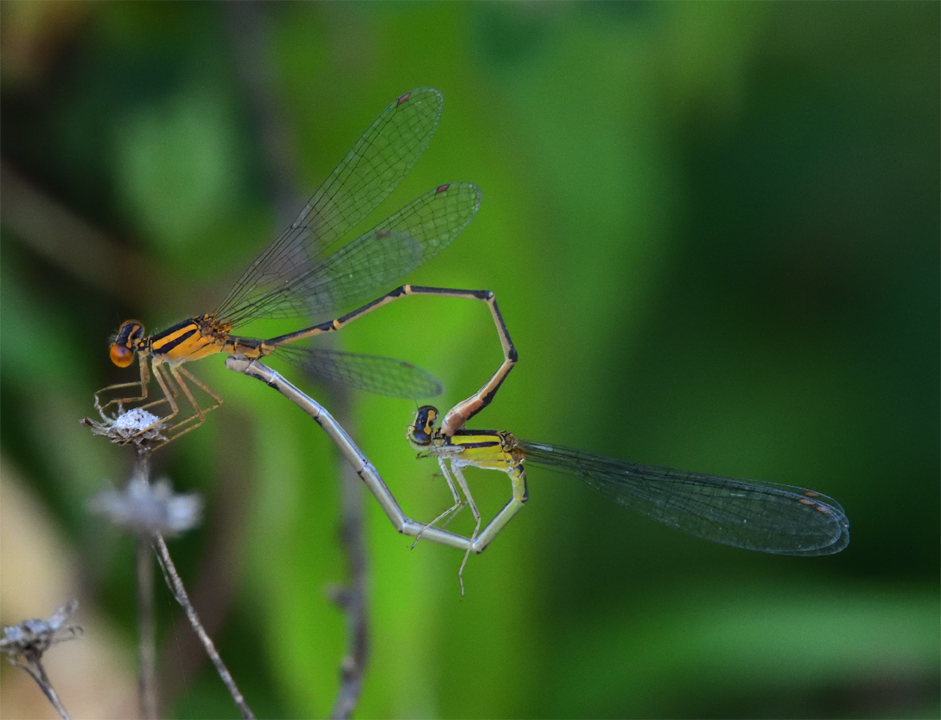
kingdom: Animalia
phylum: Arthropoda
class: Insecta
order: Odonata
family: Coenagrionidae
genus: Enallagma
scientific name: Enallagma signatum
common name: Orange bluet
